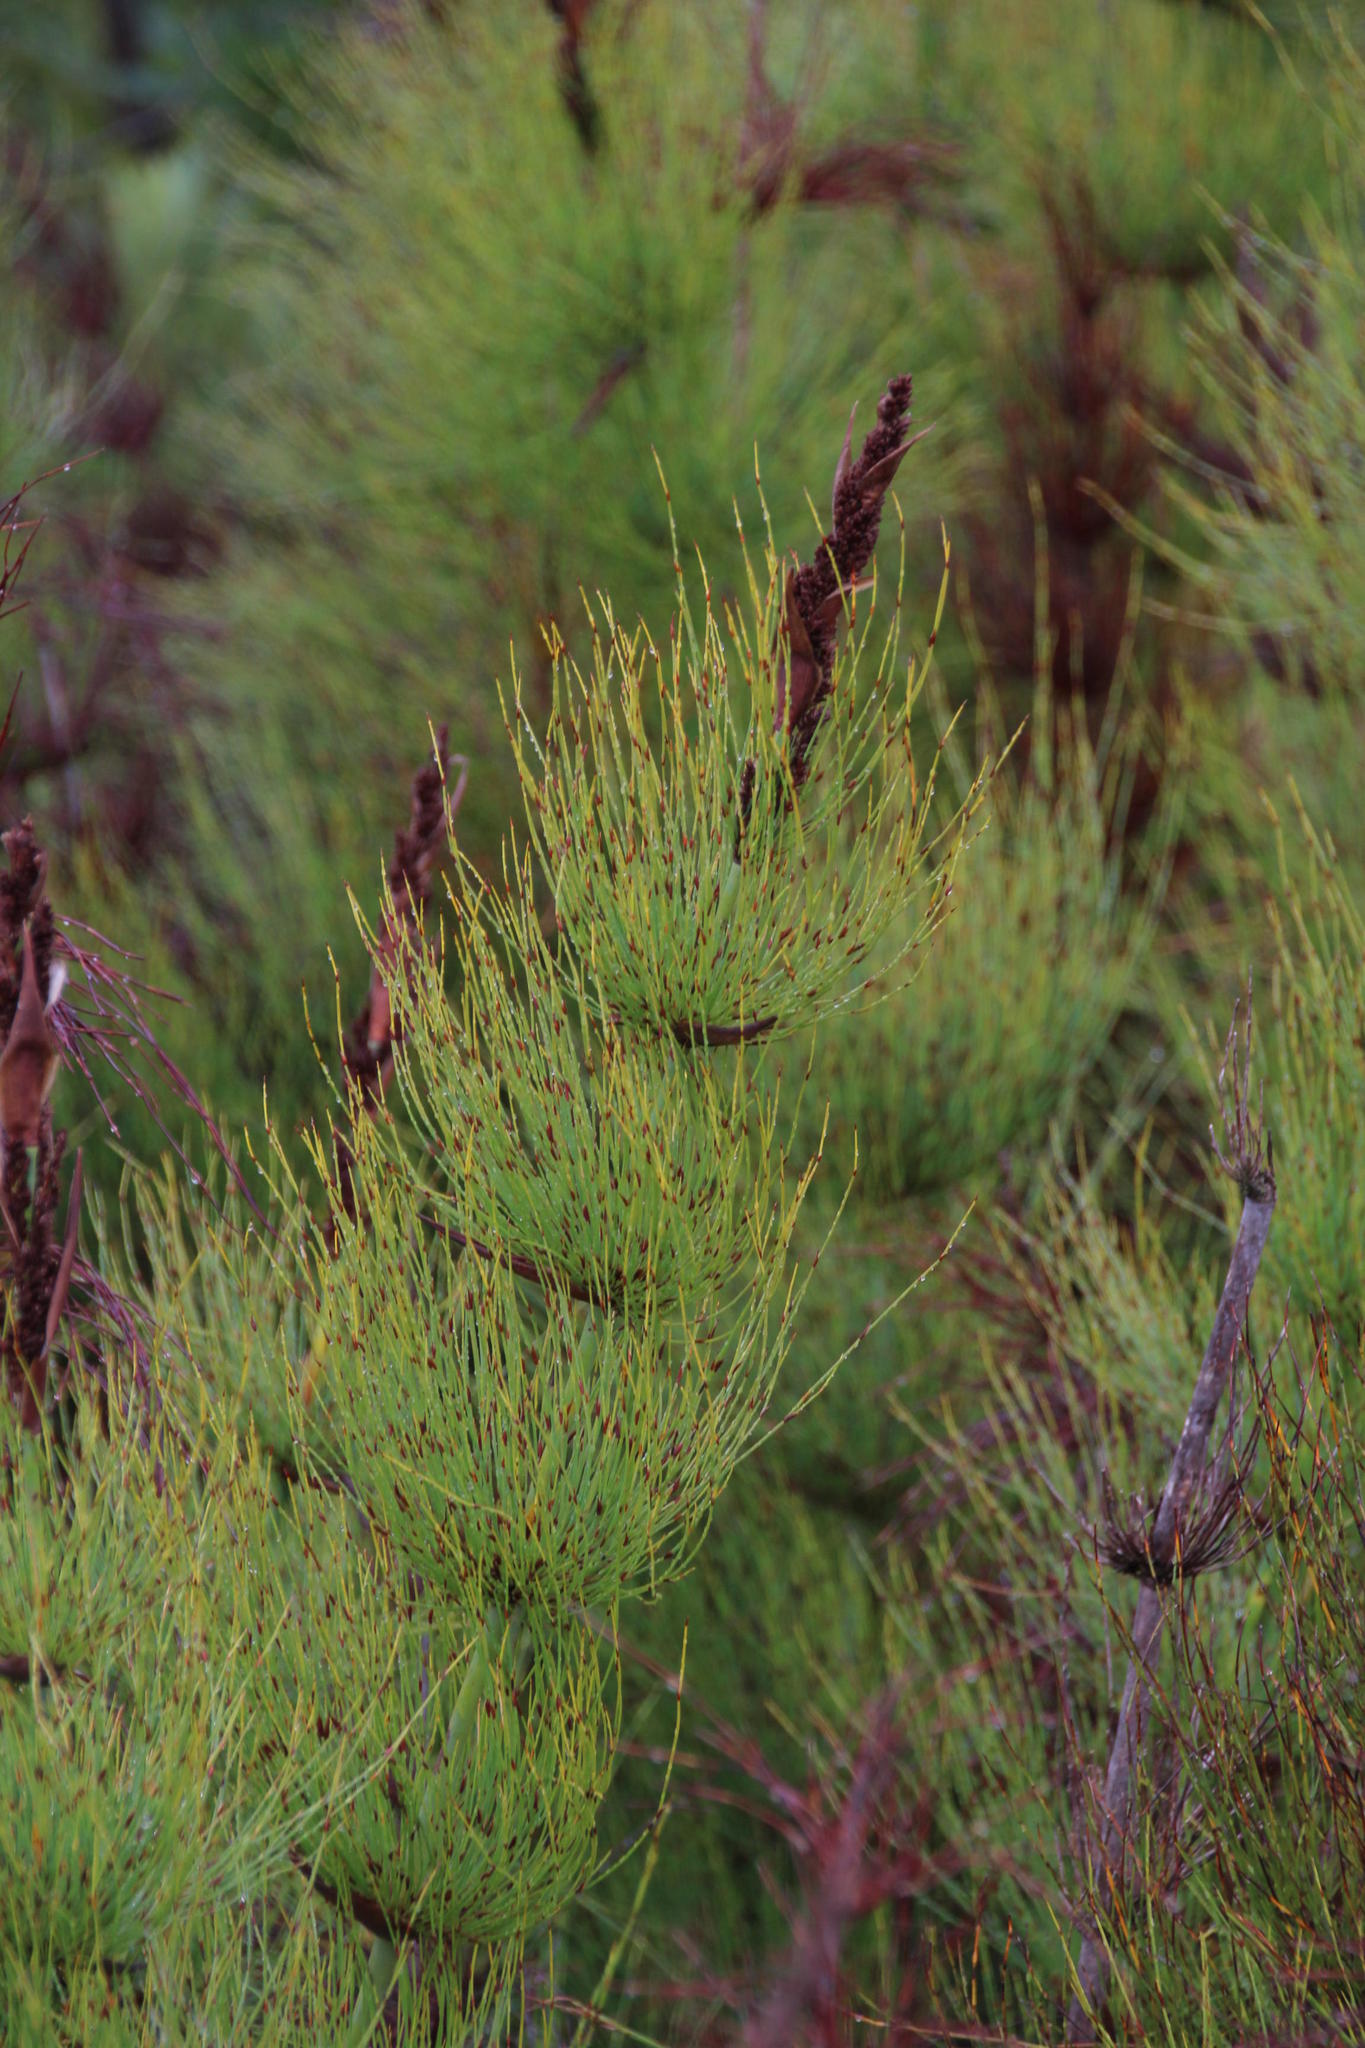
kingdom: Plantae
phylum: Tracheophyta
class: Liliopsida
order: Poales
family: Restionaceae
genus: Elegia
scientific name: Elegia capensis
